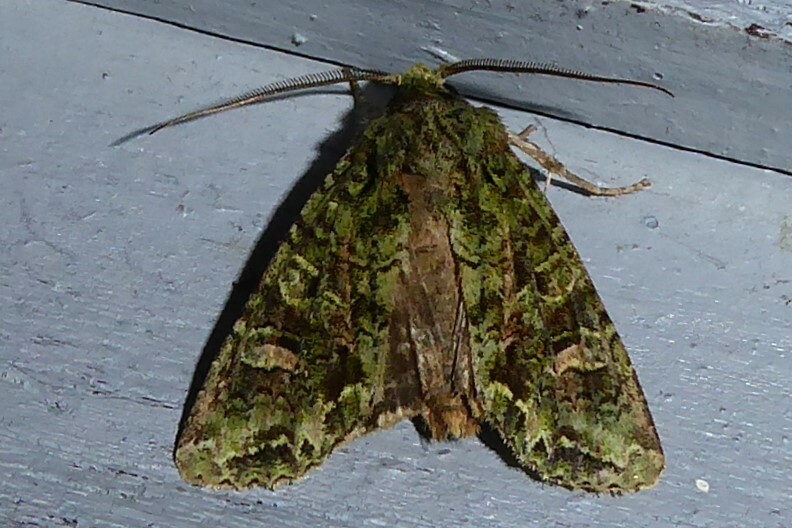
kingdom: Animalia
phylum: Arthropoda
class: Insecta
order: Lepidoptera
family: Noctuidae
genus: Ichneutica
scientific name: Ichneutica
